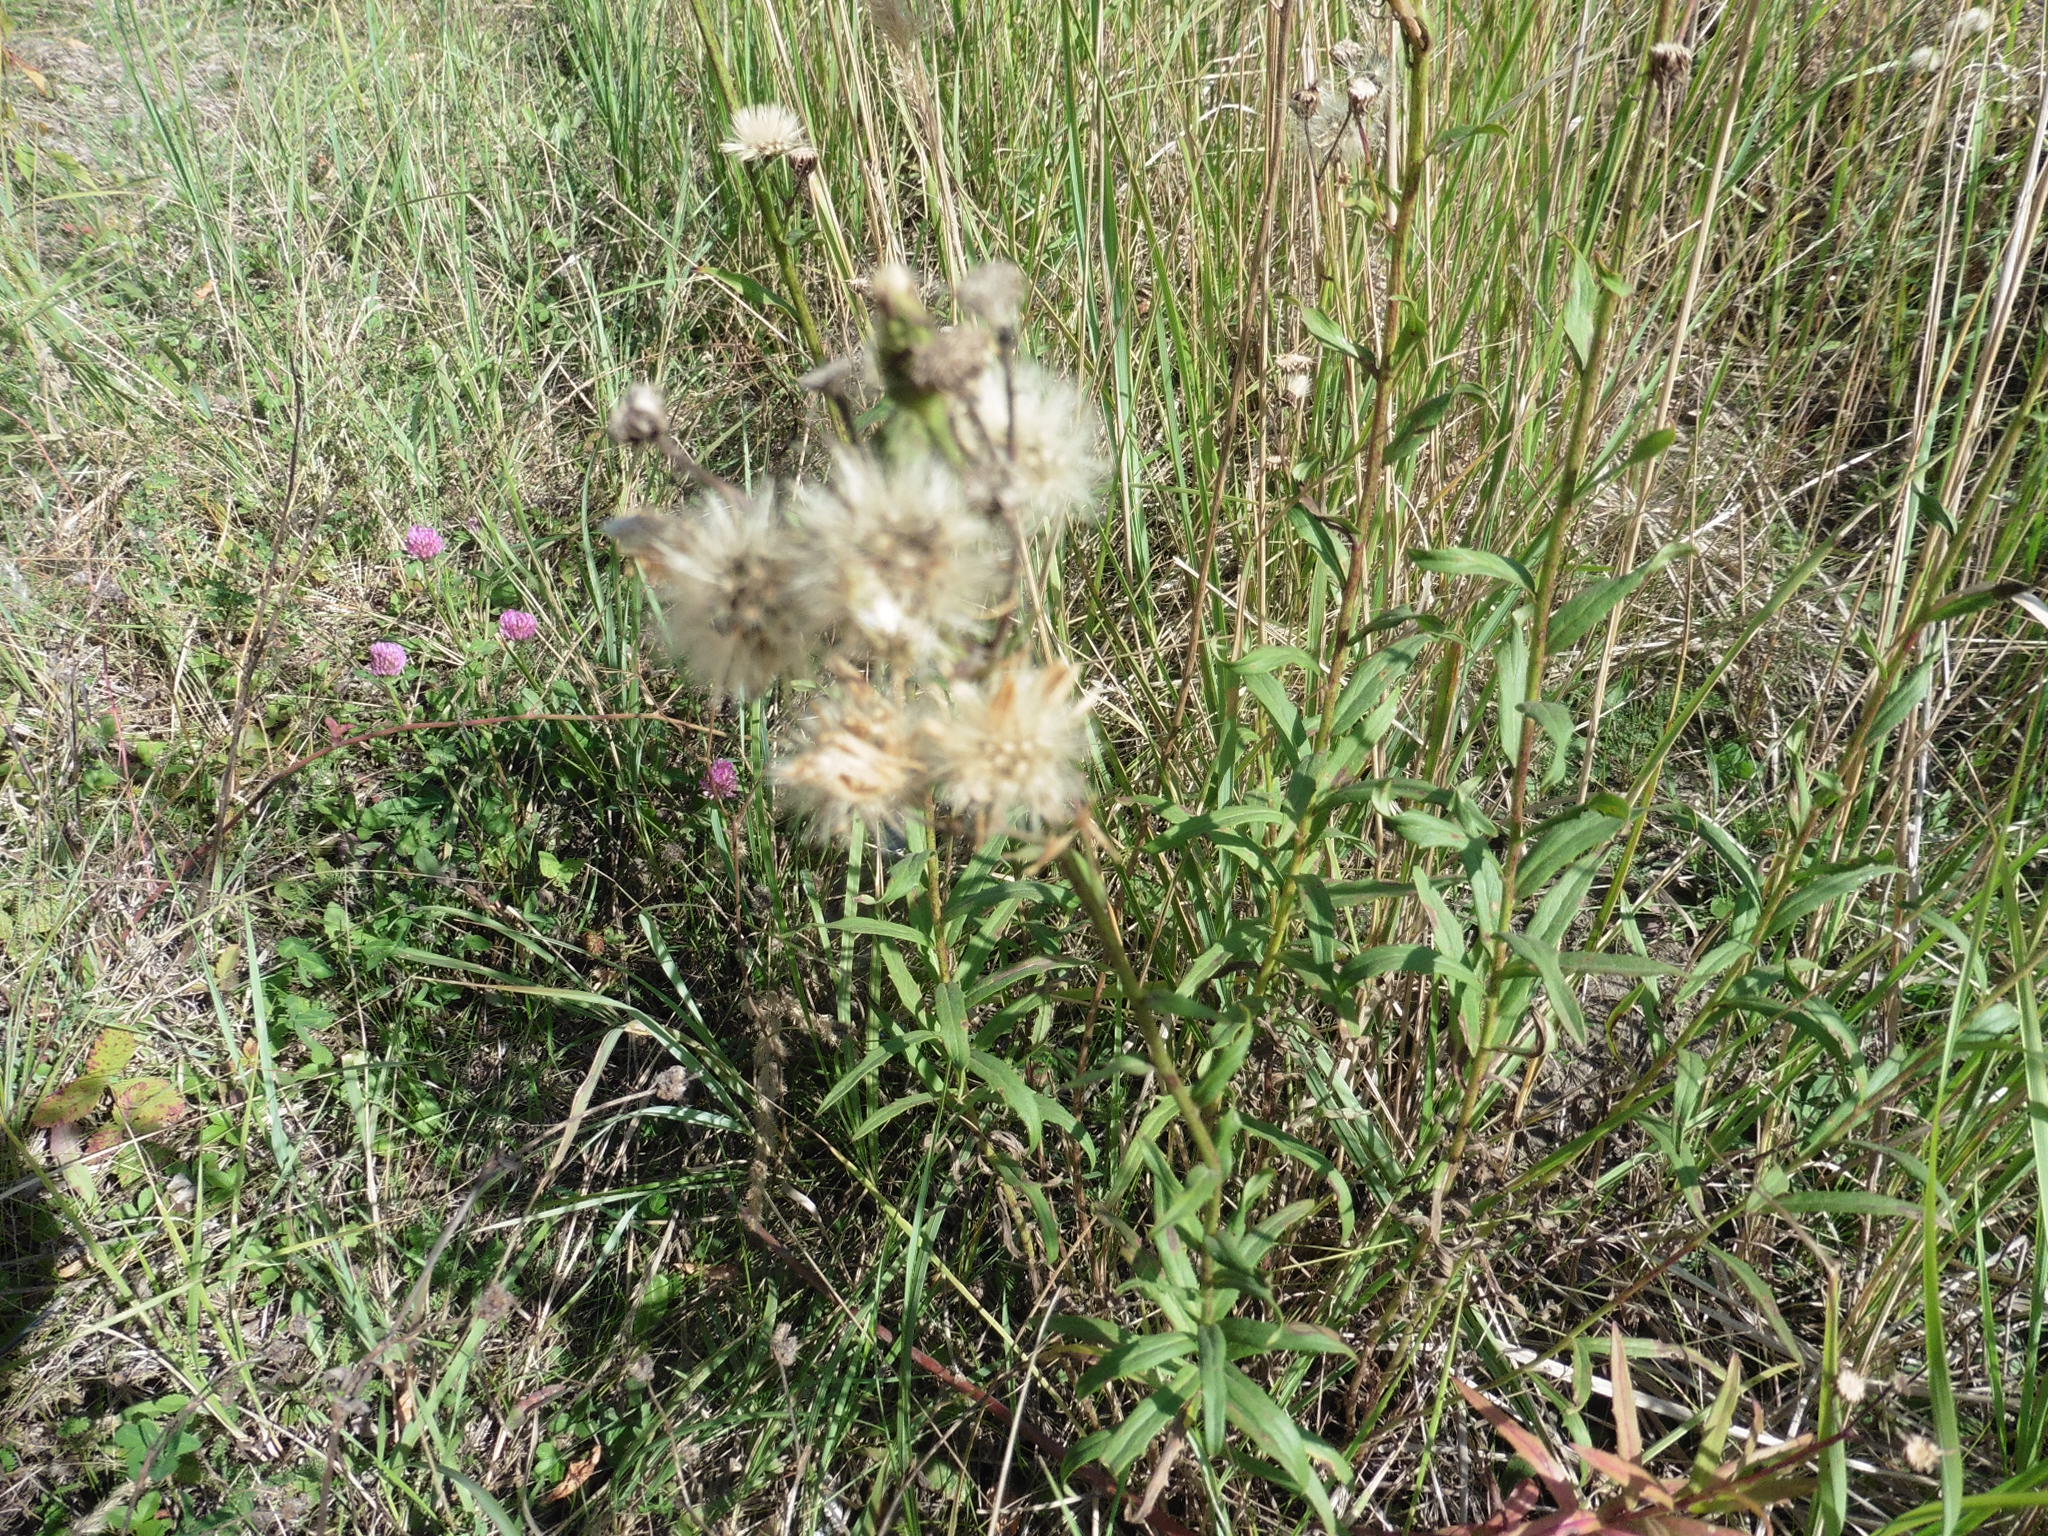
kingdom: Plantae
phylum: Tracheophyta
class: Magnoliopsida
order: Asterales
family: Asteraceae
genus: Hieracium
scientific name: Hieracium umbellatum
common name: Northern hawkweed
